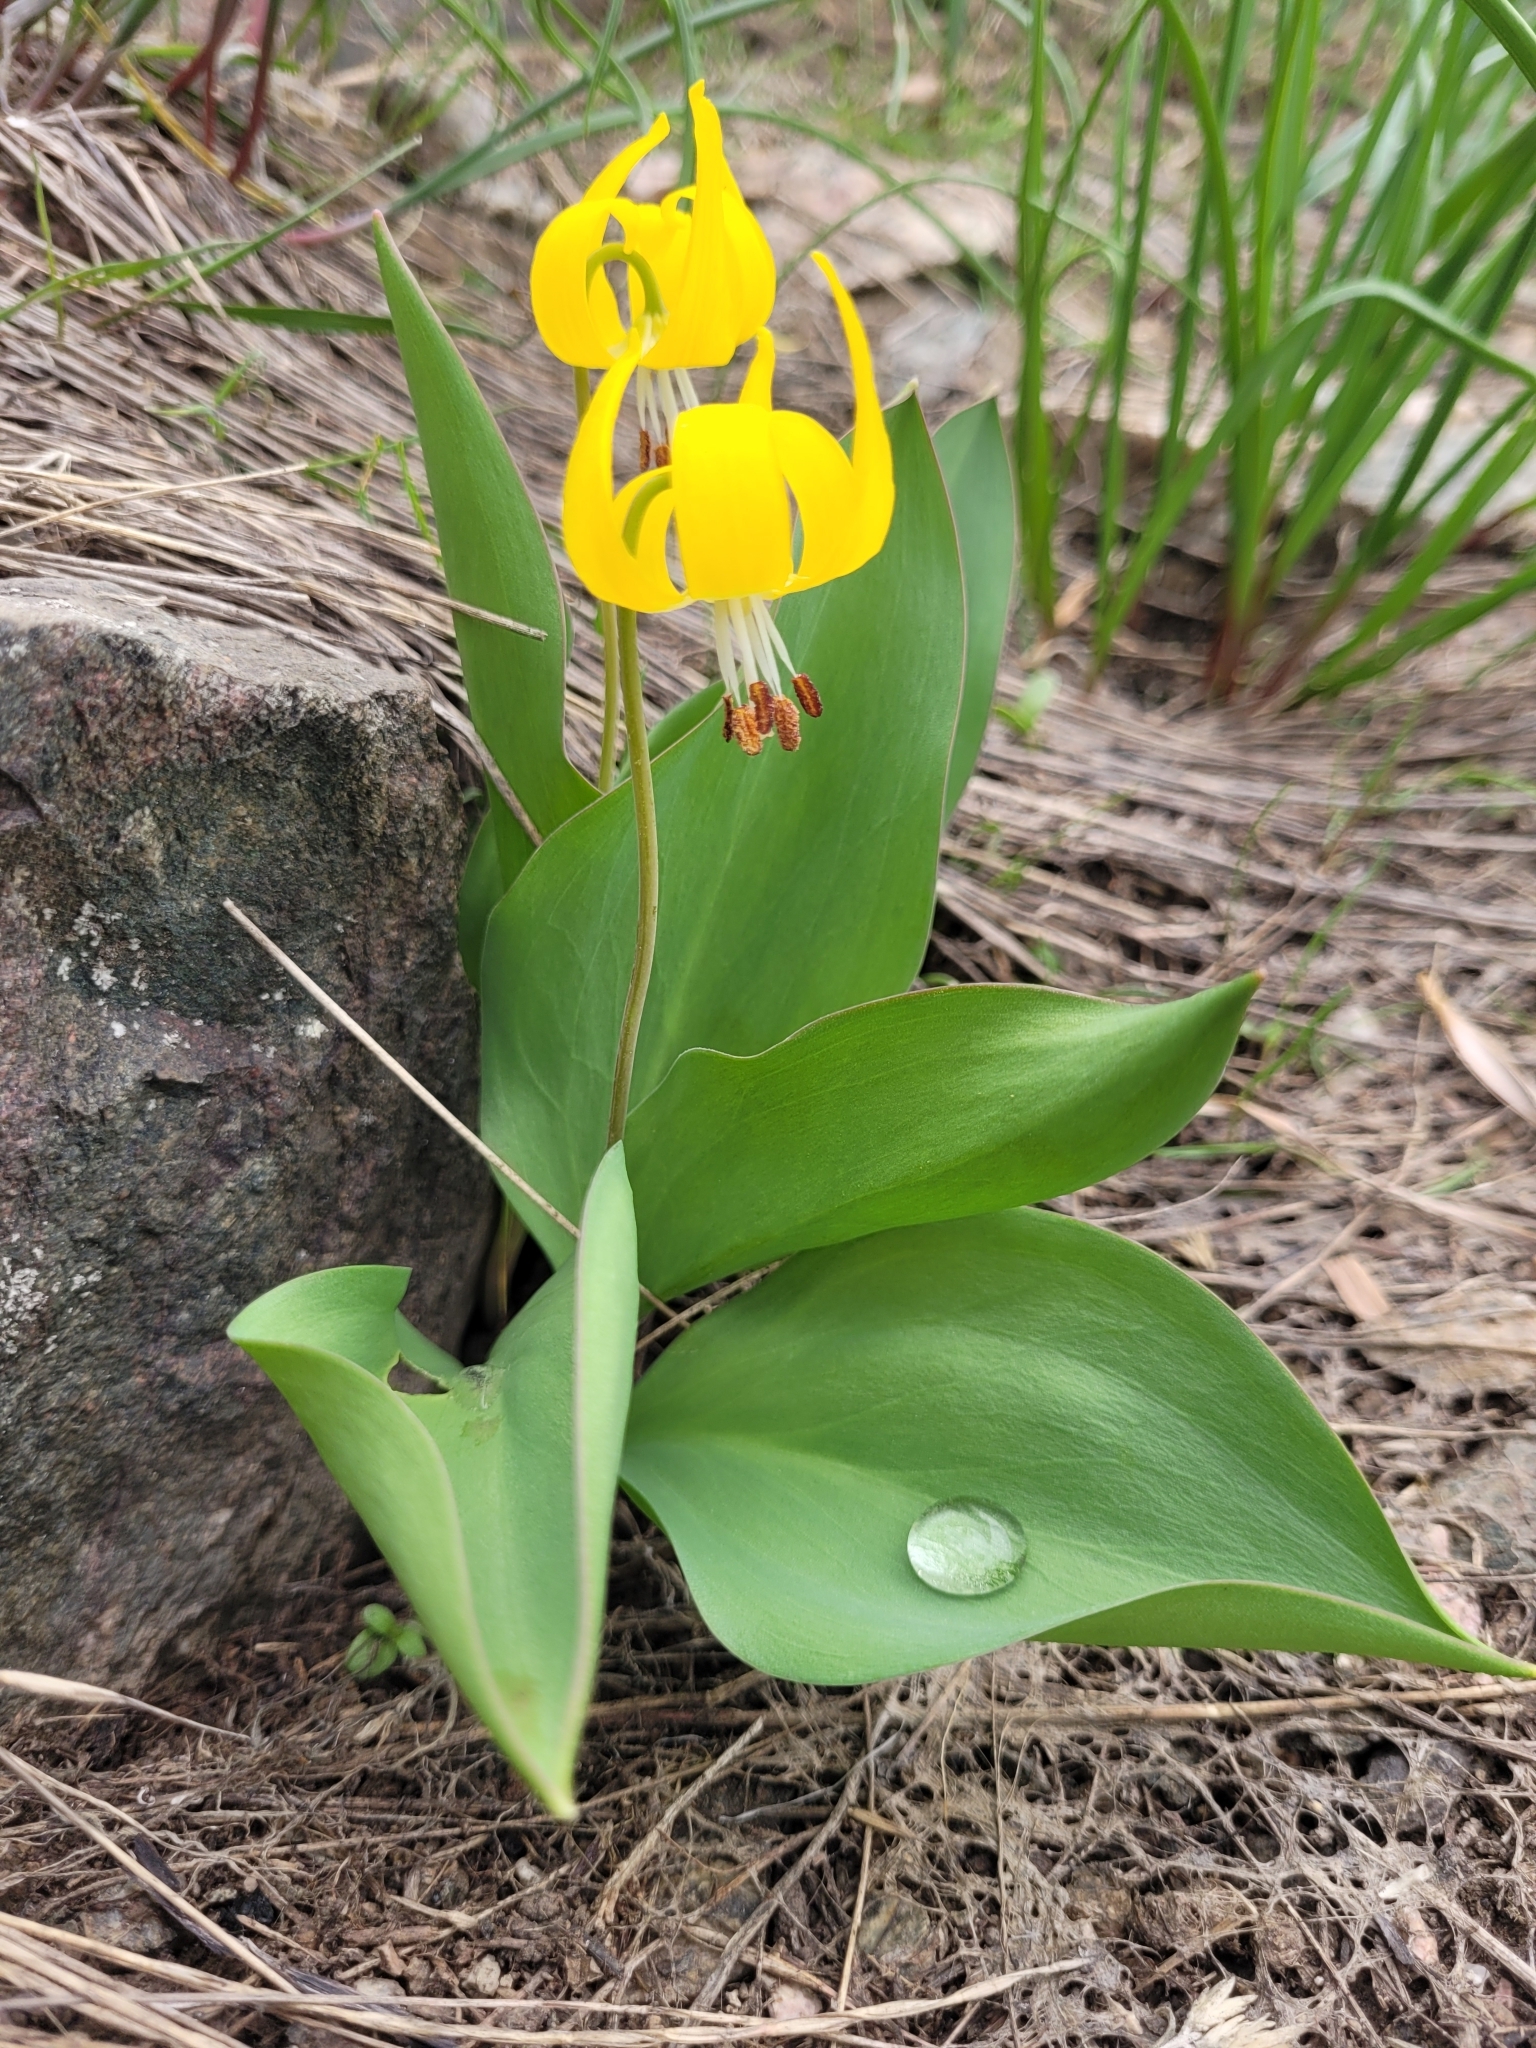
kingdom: Plantae
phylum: Tracheophyta
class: Liliopsida
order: Liliales
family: Liliaceae
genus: Erythronium
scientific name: Erythronium grandiflorum
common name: Avalanche-lily
